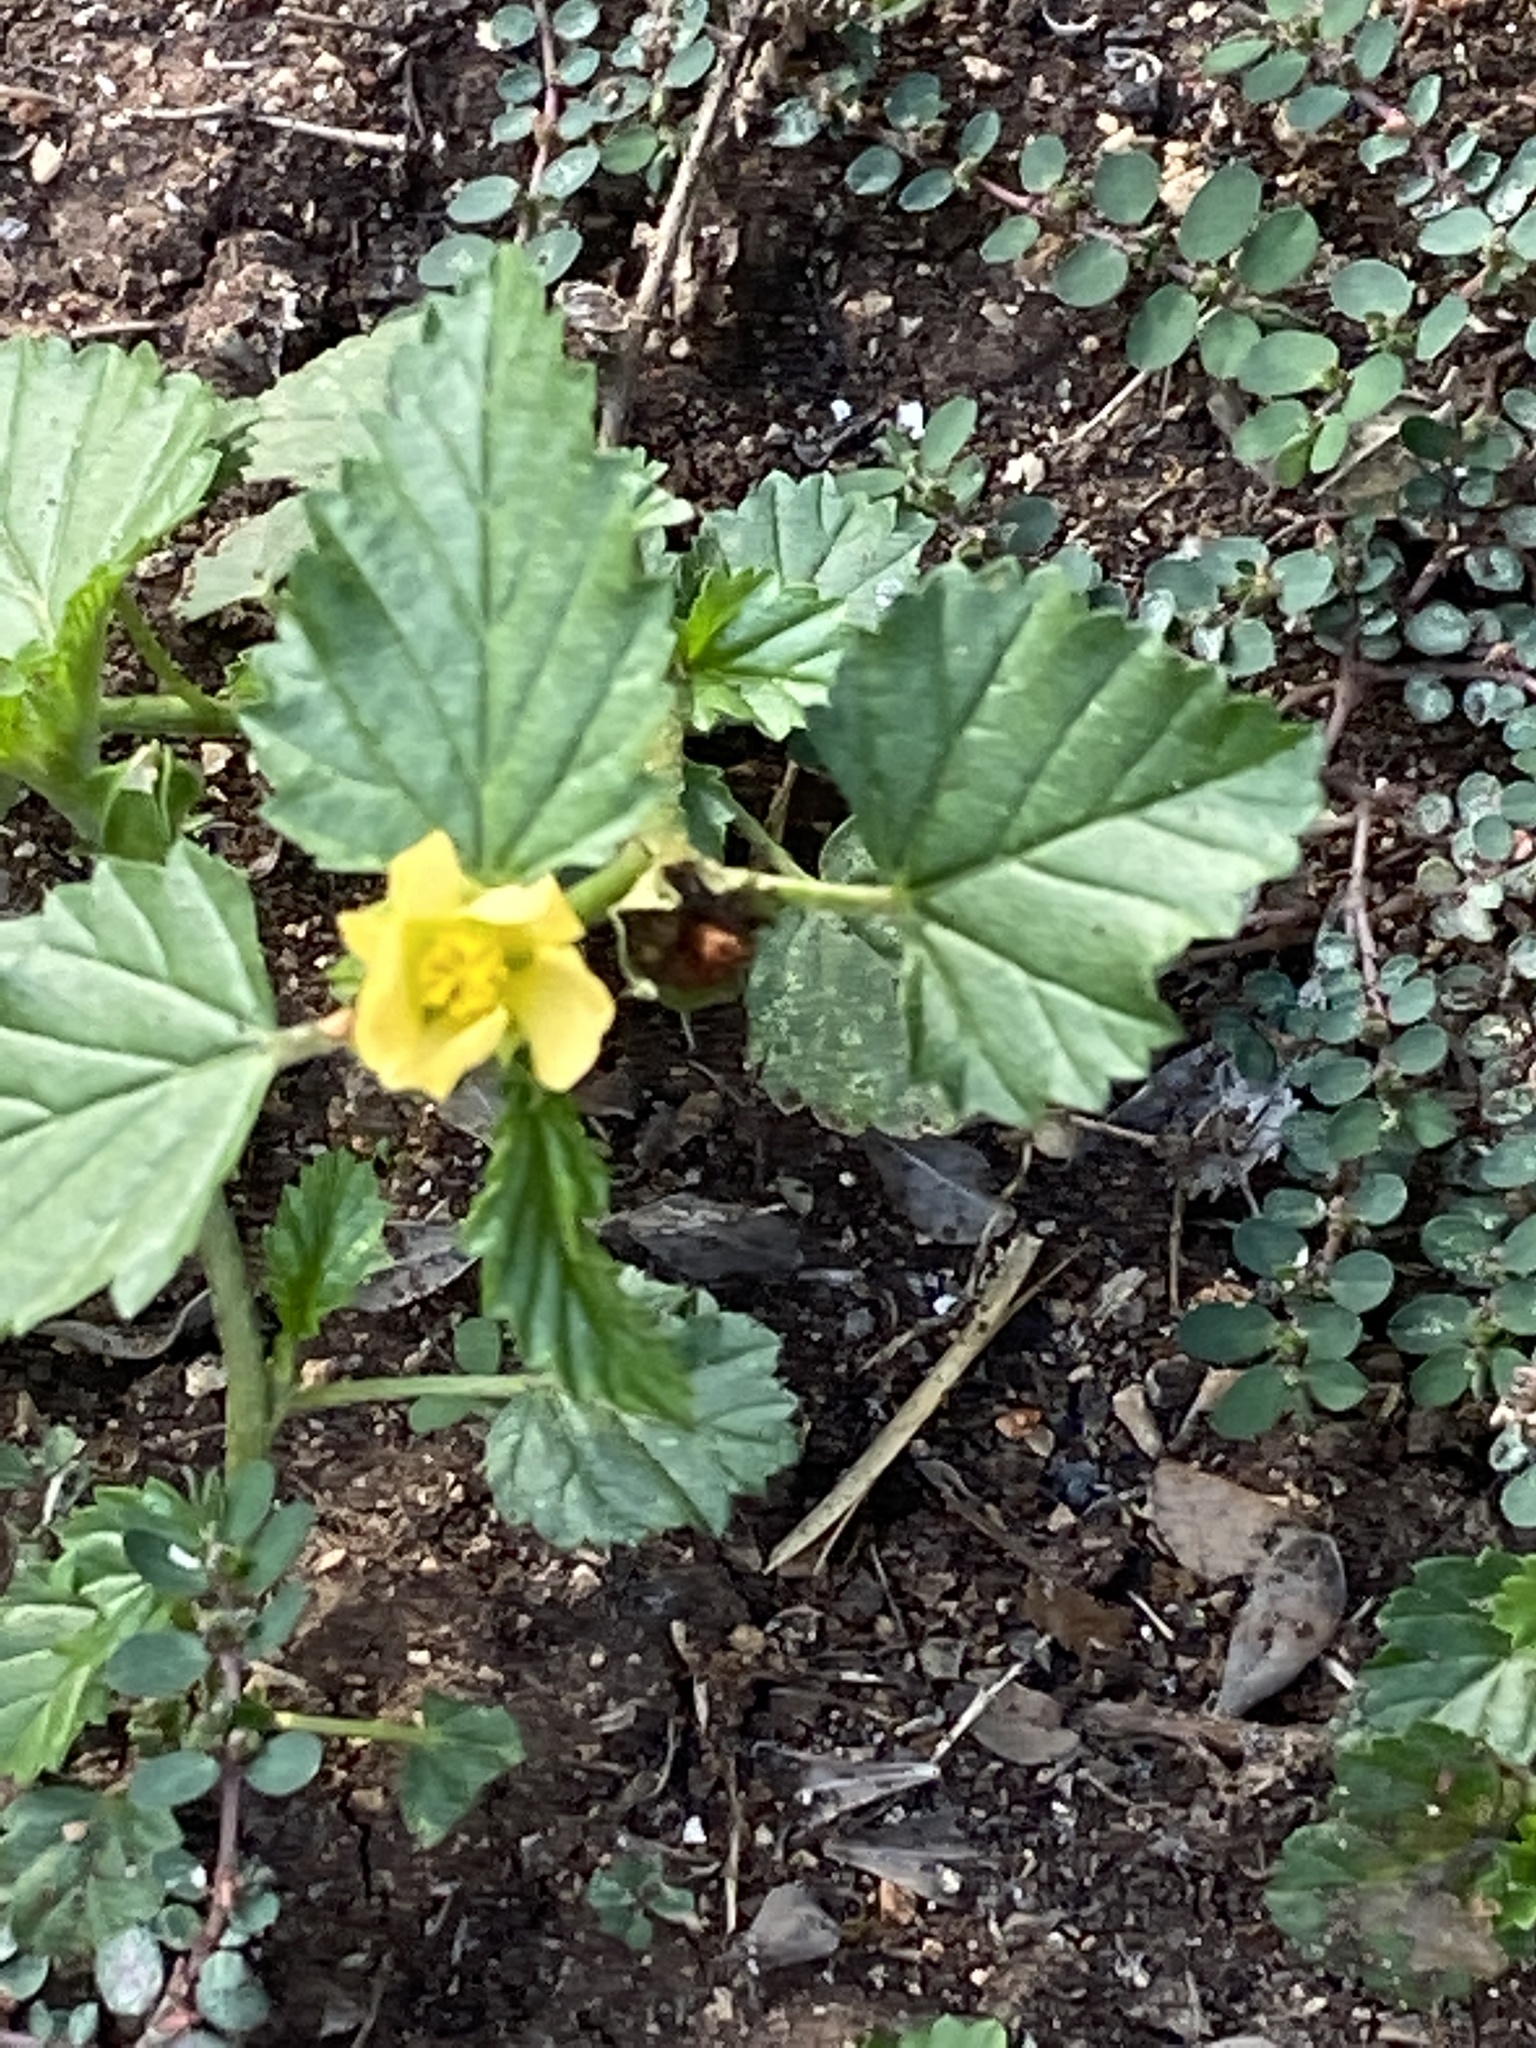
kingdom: Plantae
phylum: Tracheophyta
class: Magnoliopsida
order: Malvales
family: Malvaceae
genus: Malvastrum
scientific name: Malvastrum coromandelianum
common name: Threelobe false mallow
